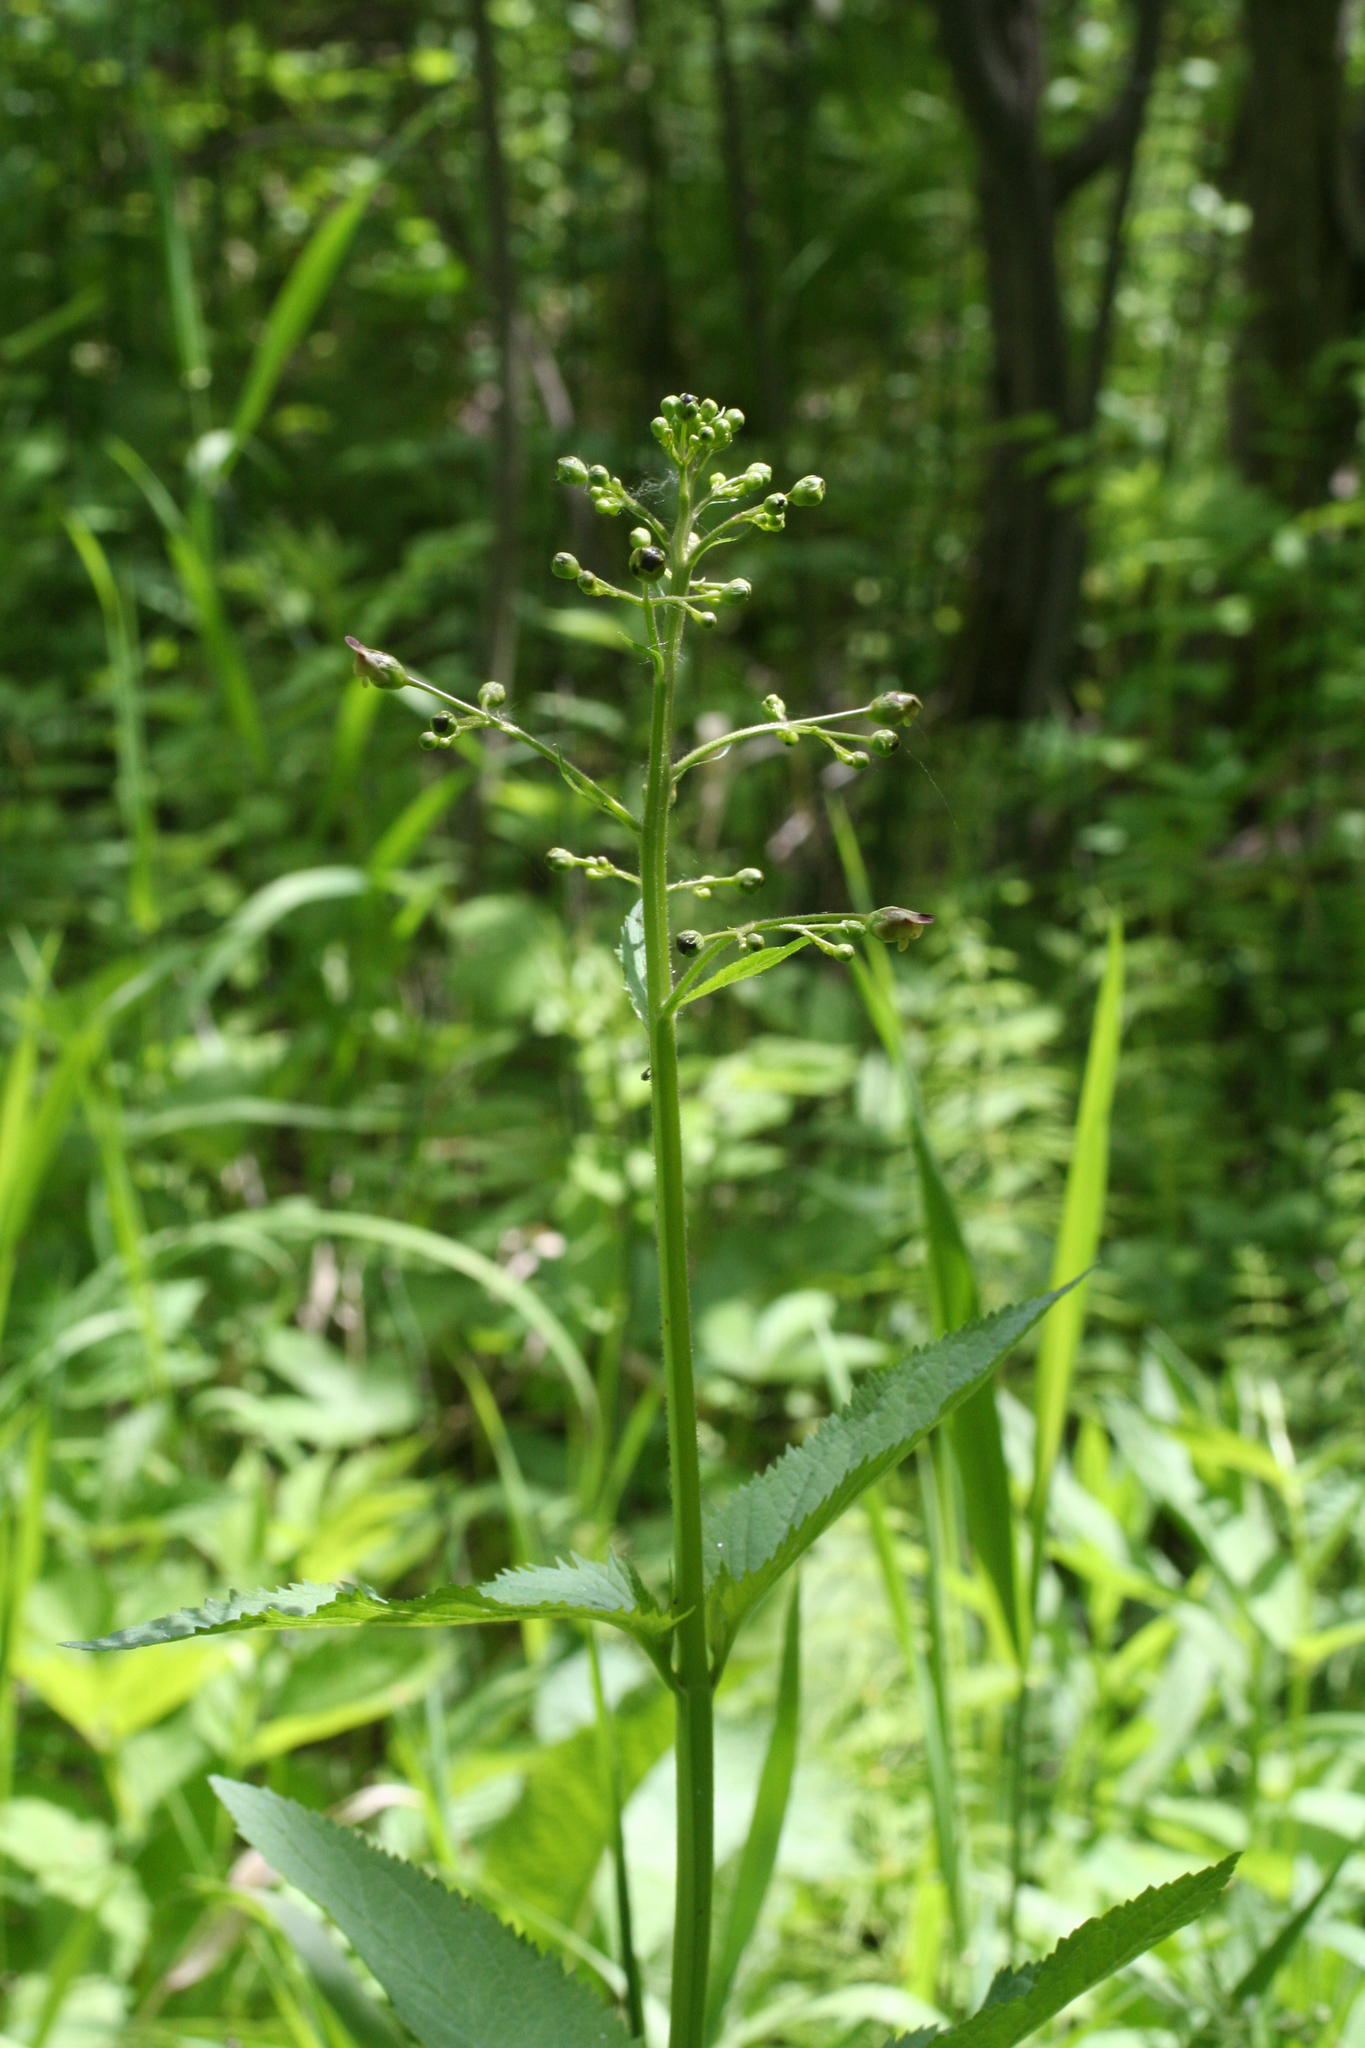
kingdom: Plantae
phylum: Tracheophyta
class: Magnoliopsida
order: Lamiales
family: Scrophulariaceae
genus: Scrophularia
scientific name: Scrophularia nodosa
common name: Common figwort
